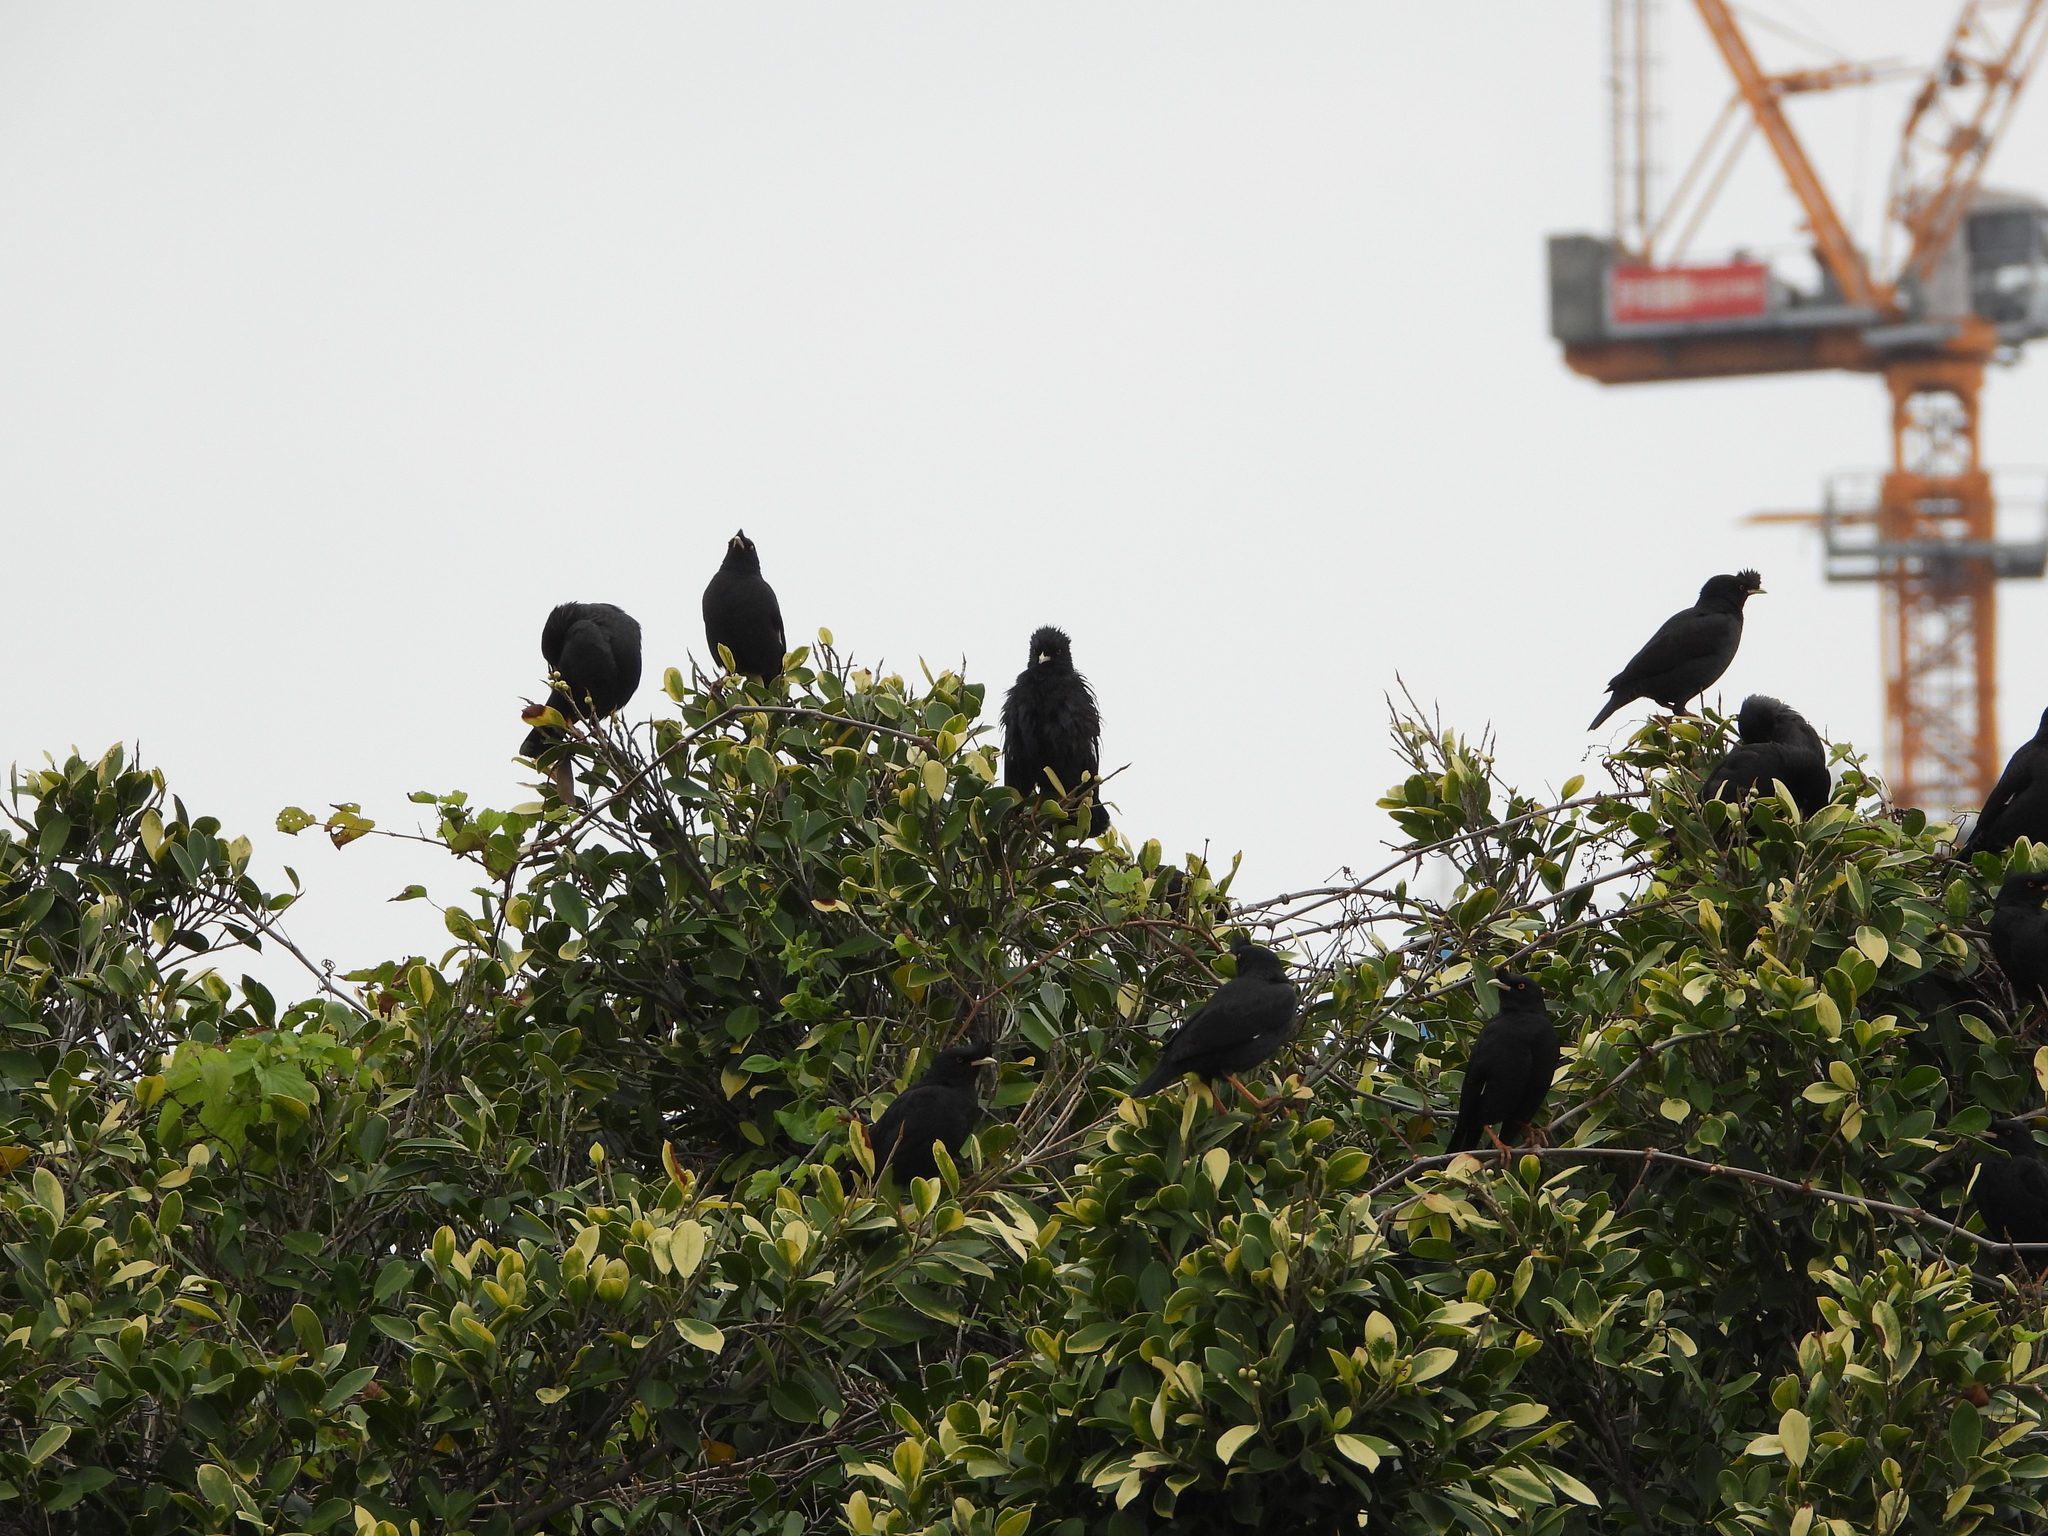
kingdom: Animalia
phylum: Chordata
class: Aves
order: Passeriformes
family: Sturnidae
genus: Acridotheres
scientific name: Acridotheres cristatellus
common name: Crested myna
